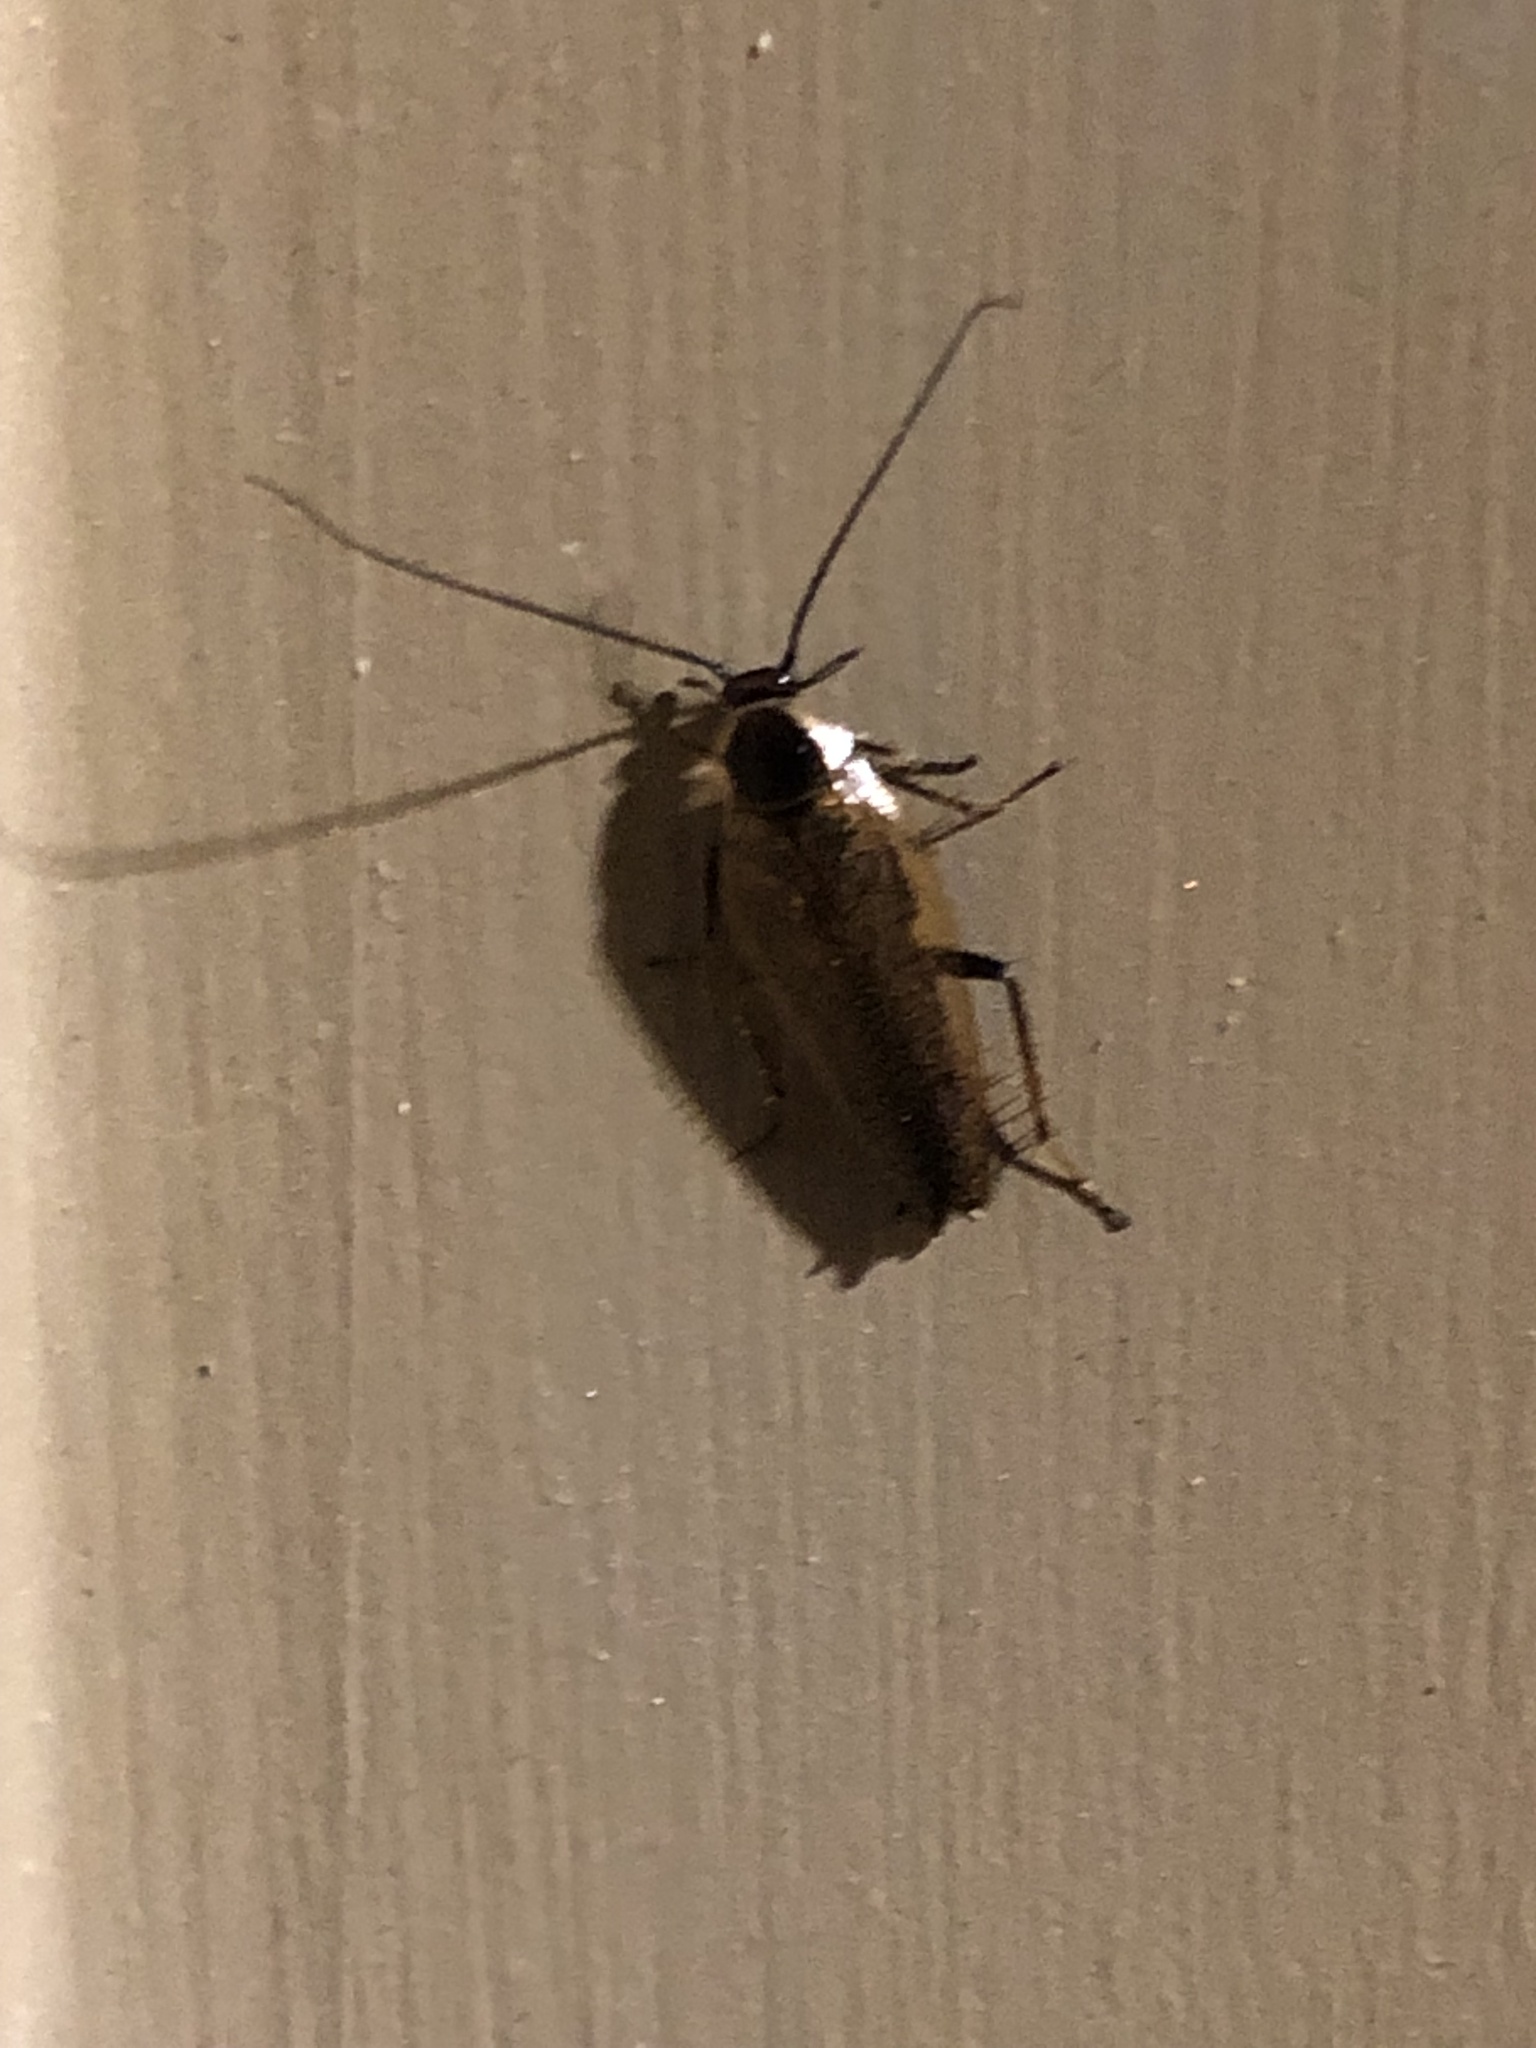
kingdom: Animalia
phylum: Arthropoda
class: Insecta
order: Blattodea
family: Ectobiidae
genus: Ectobius
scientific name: Ectobius lapponicus
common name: Dusky cockroach
